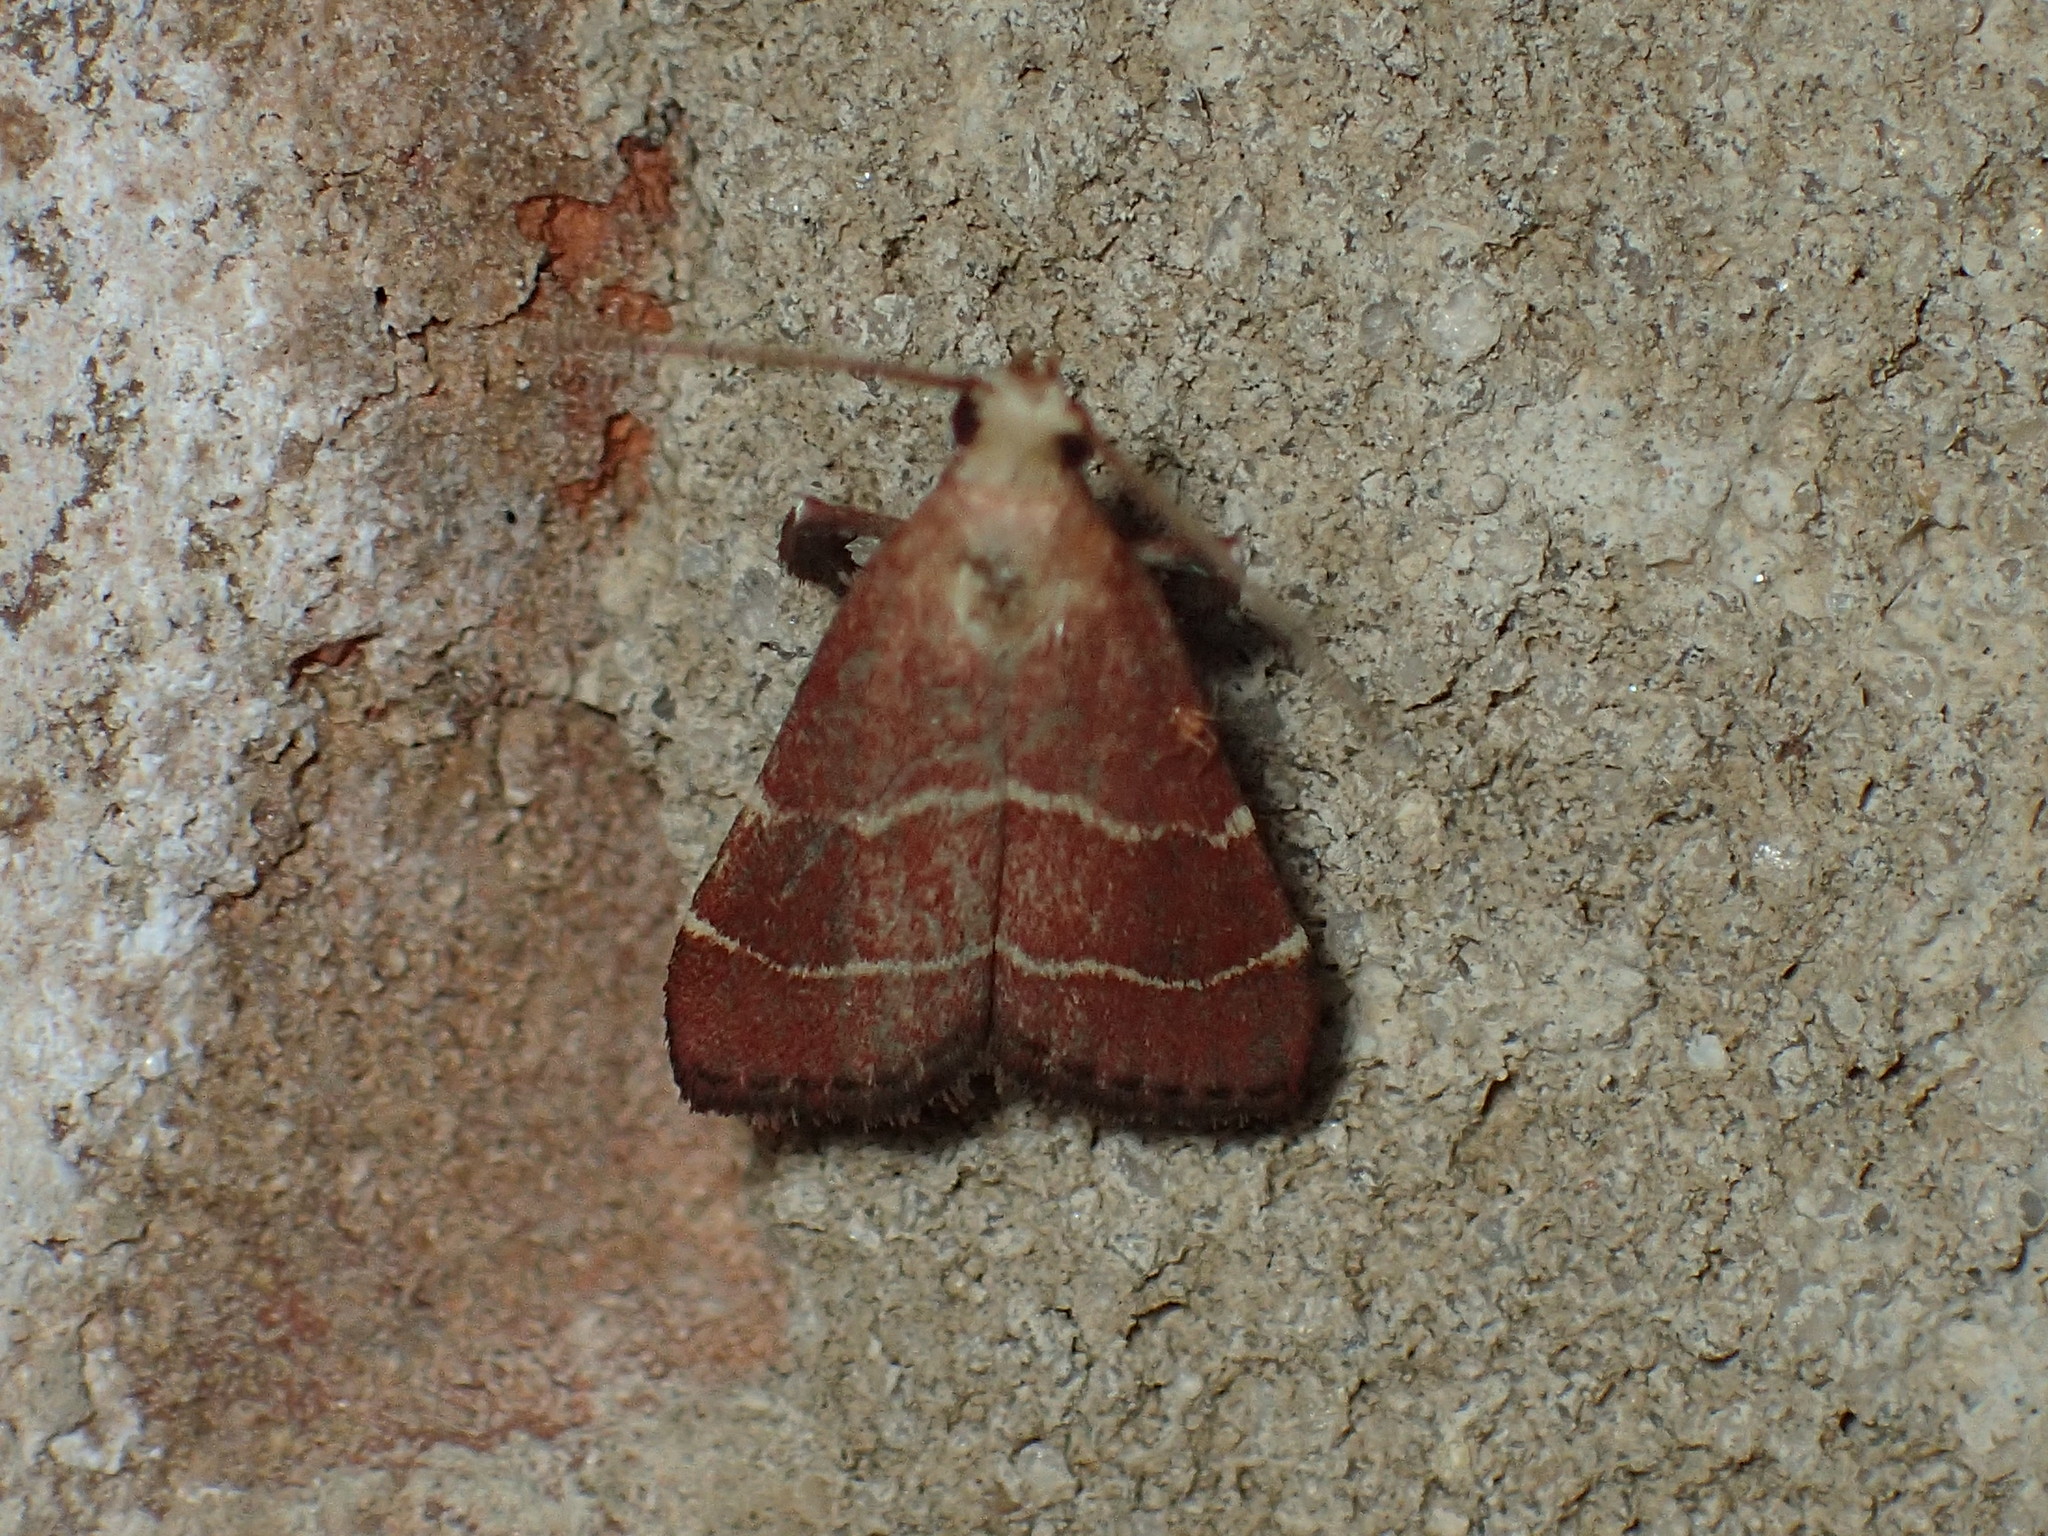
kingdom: Animalia
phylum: Arthropoda
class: Insecta
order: Lepidoptera
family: Pyralidae
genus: Arta
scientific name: Arta statalis
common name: Posturing arta moth
